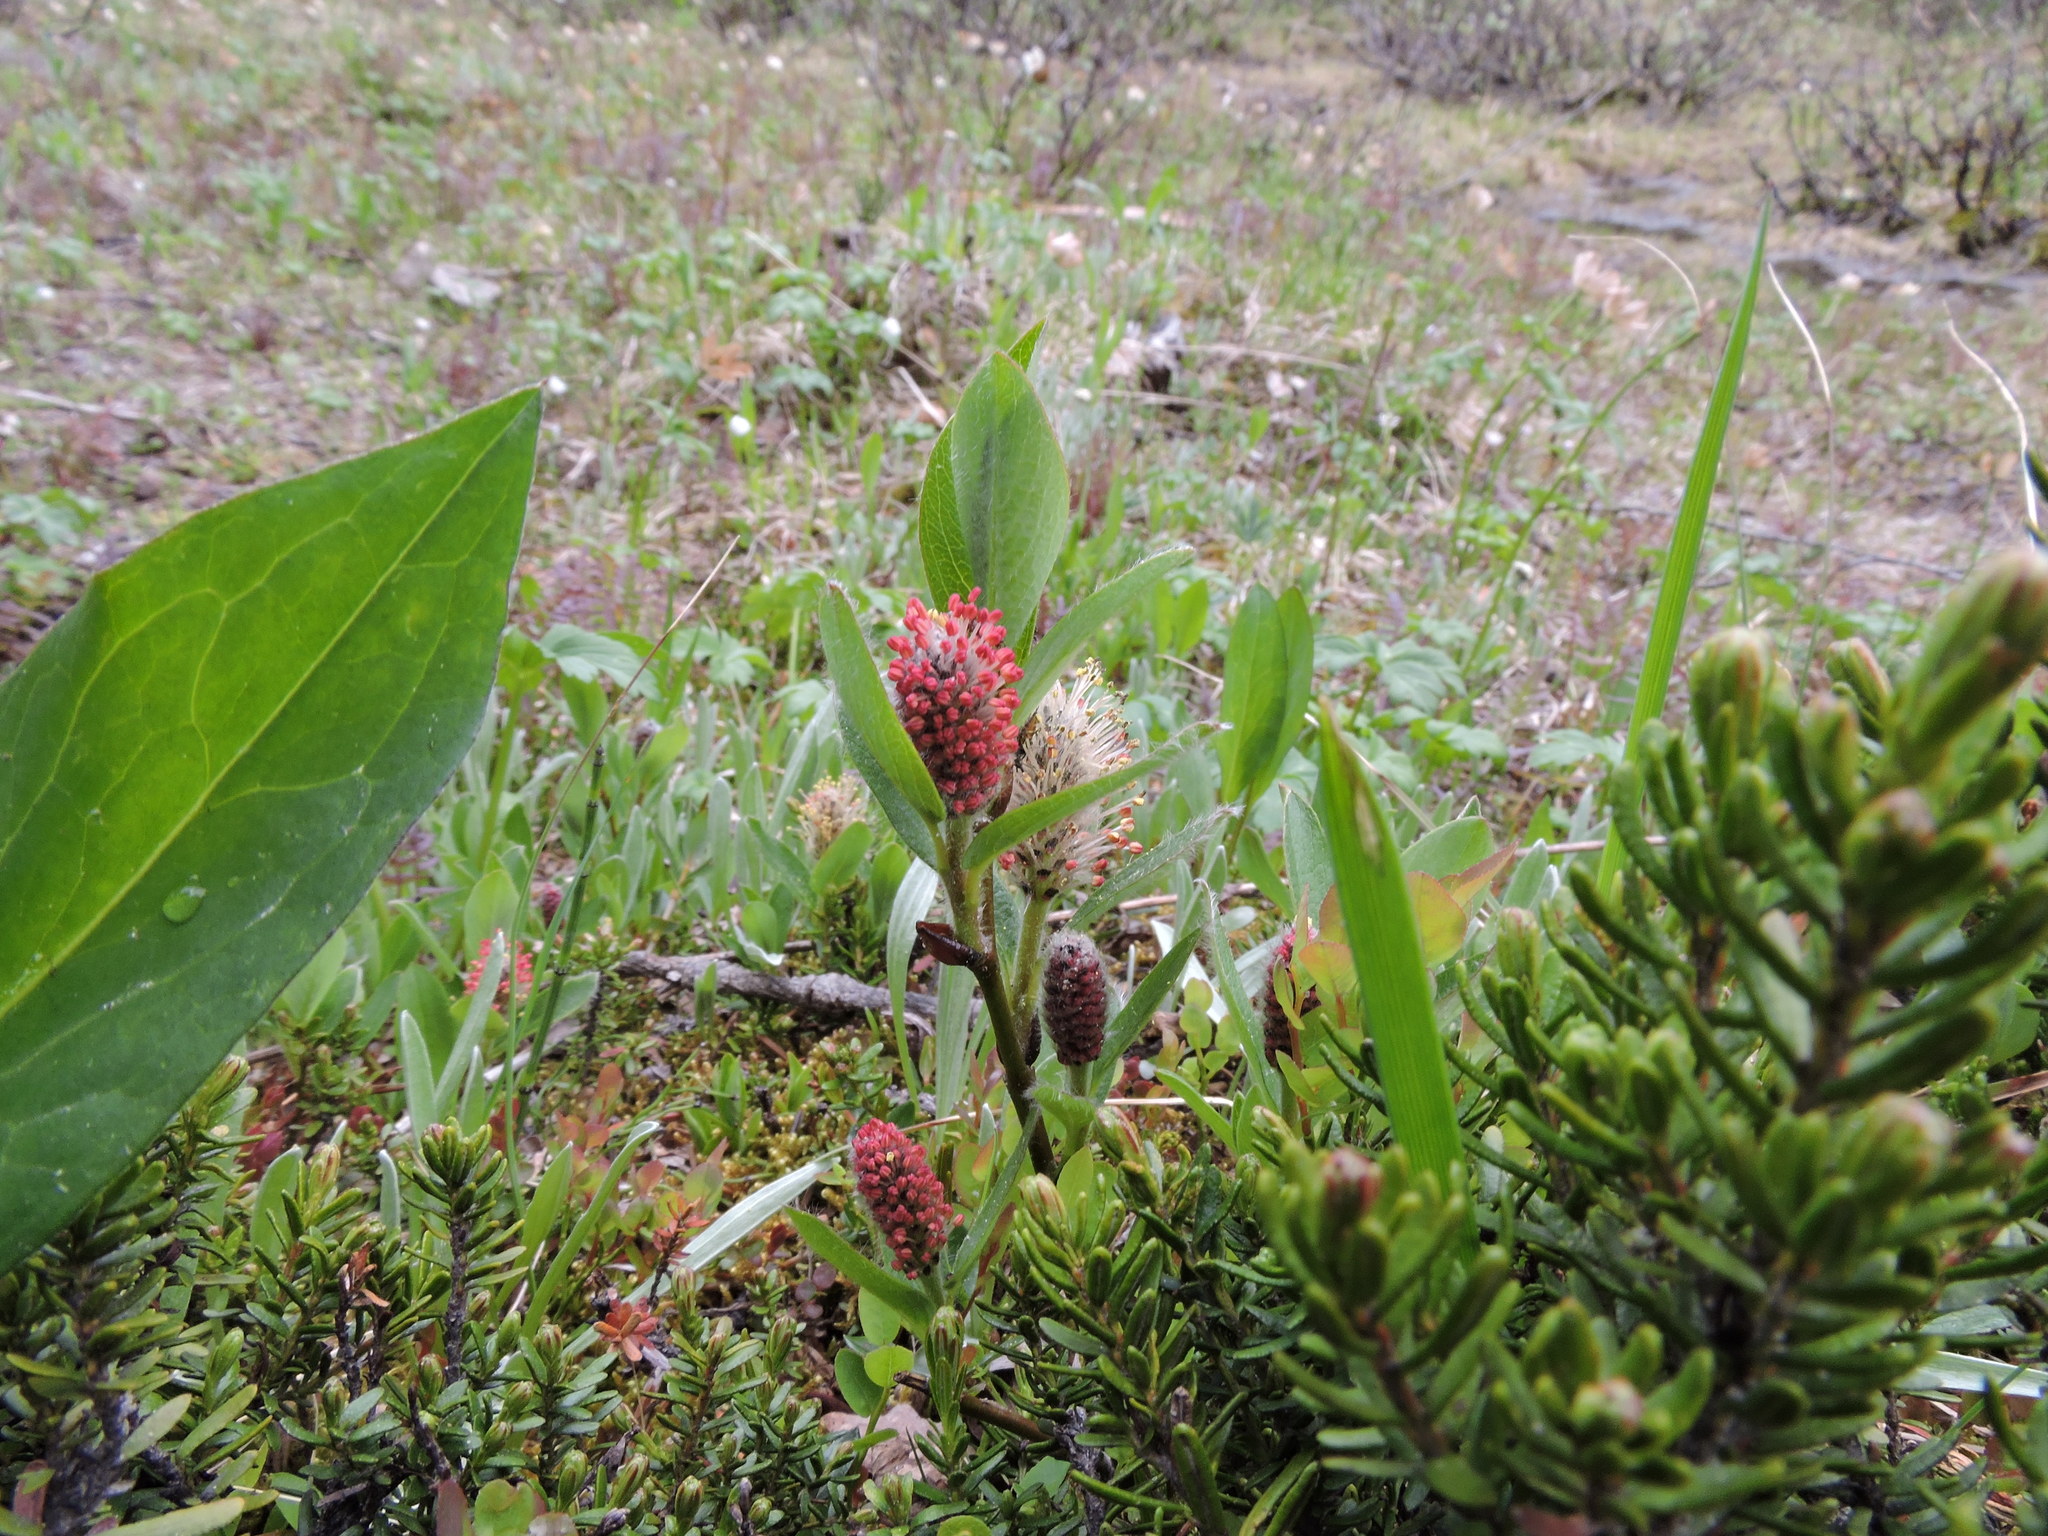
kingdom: Plantae
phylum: Tracheophyta
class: Magnoliopsida
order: Malpighiales
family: Salicaceae
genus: Salix
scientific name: Salix arctica
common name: Arctic willow
